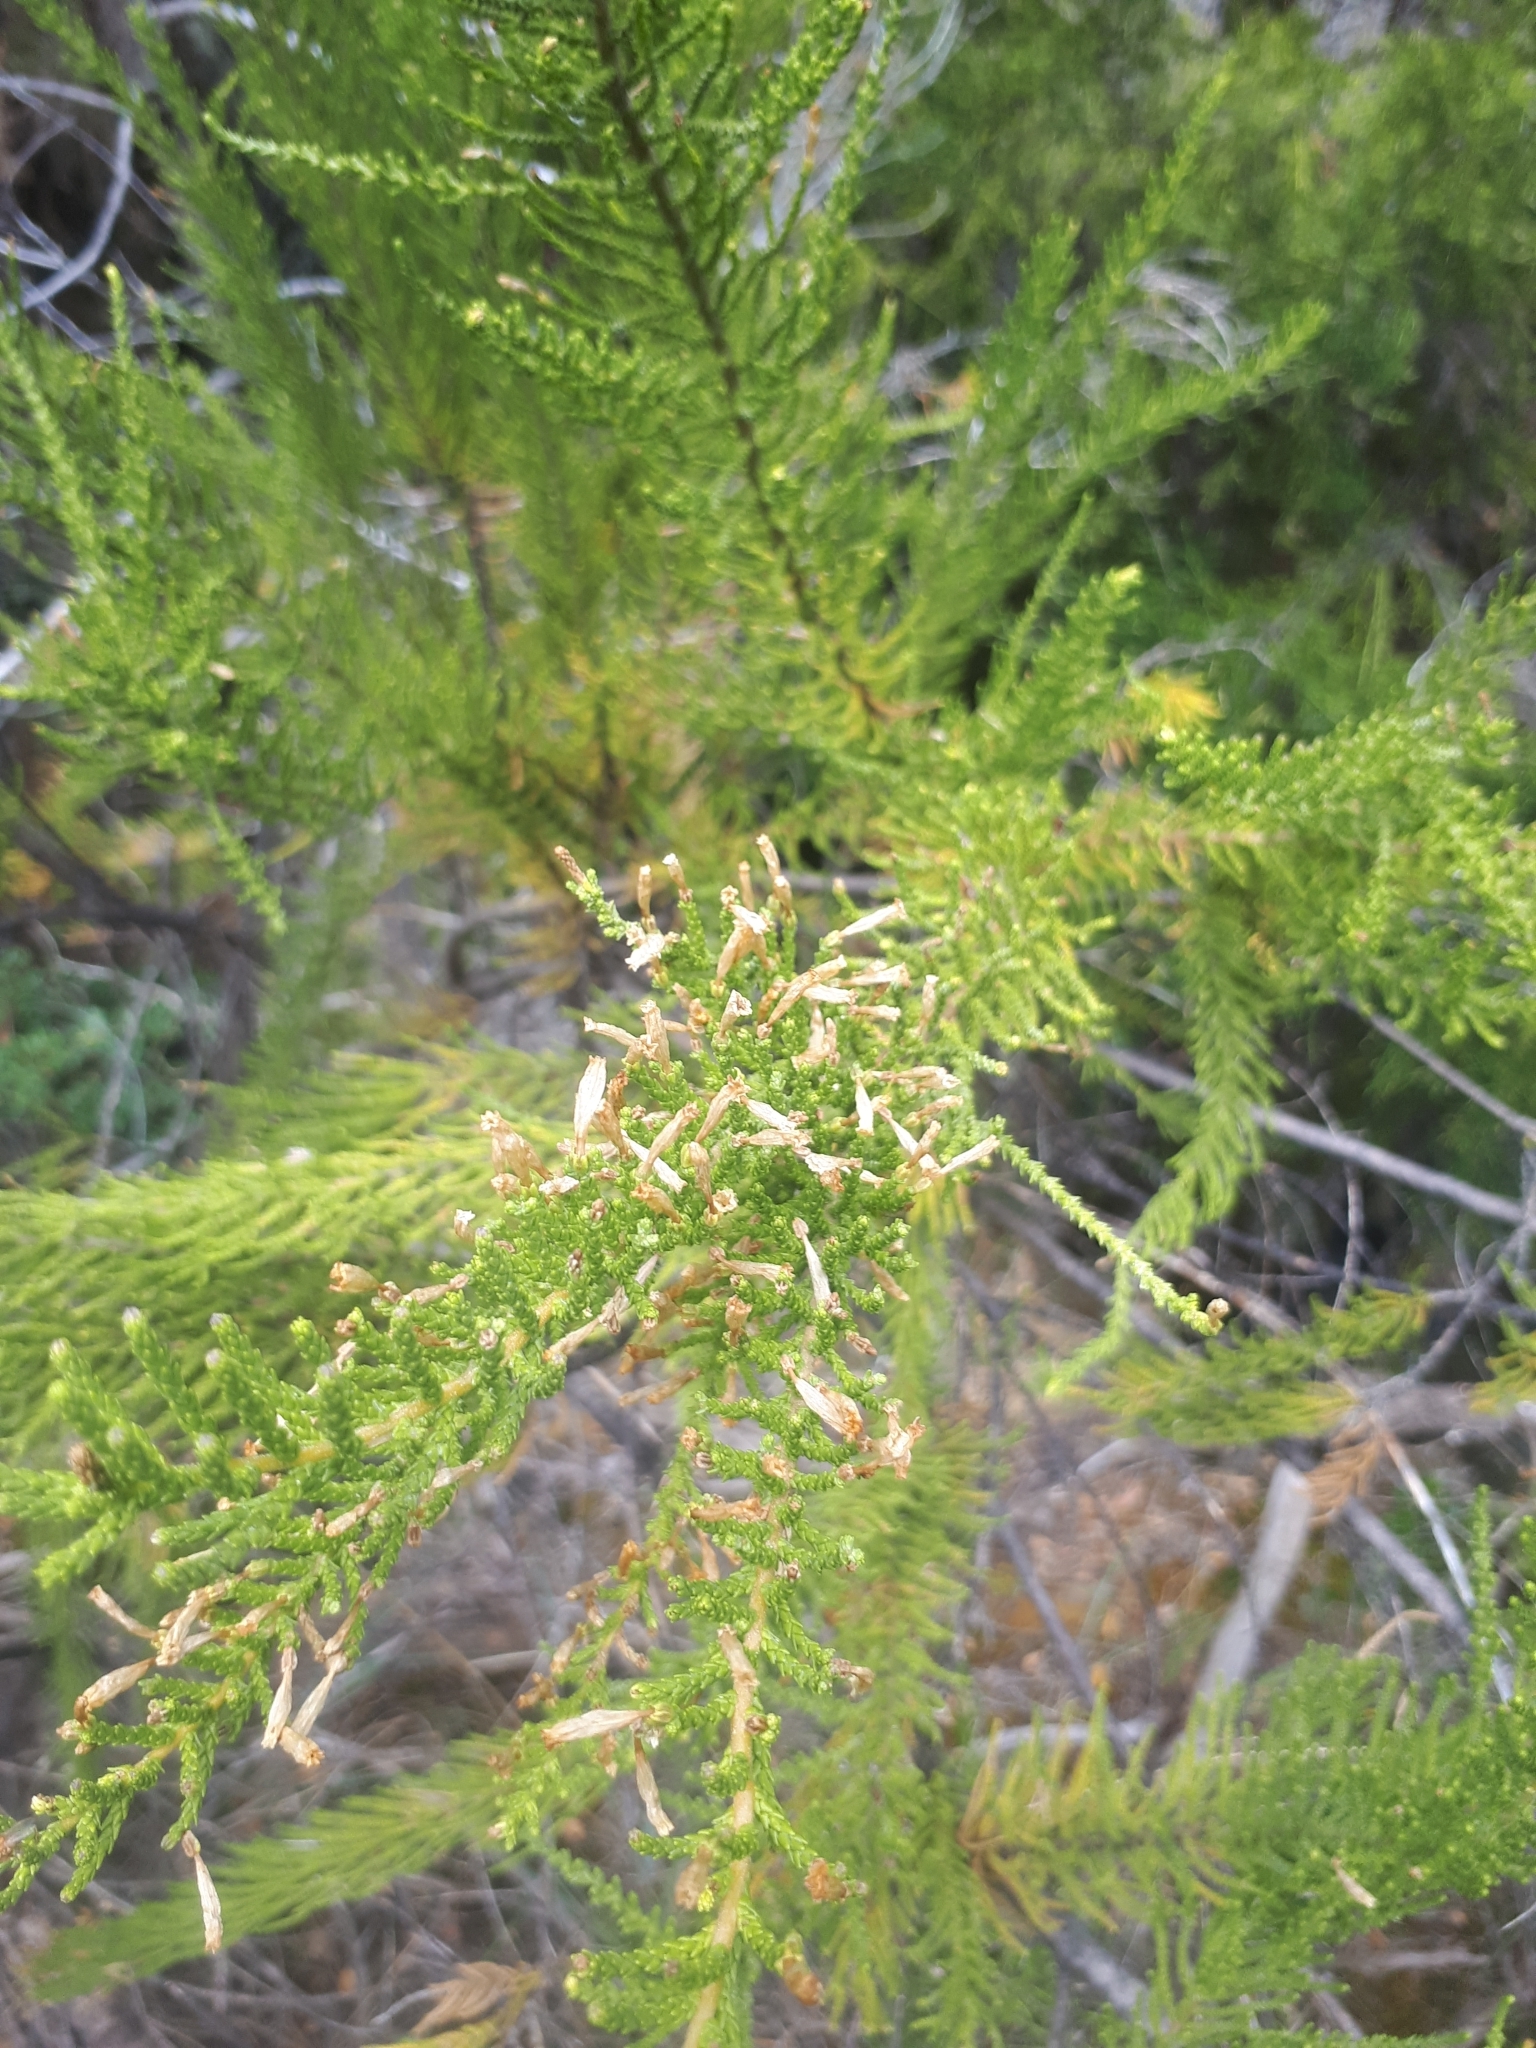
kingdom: Plantae
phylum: Tracheophyta
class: Magnoliopsida
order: Solanales
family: Solanaceae
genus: Fabiana
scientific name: Fabiana imbricata
